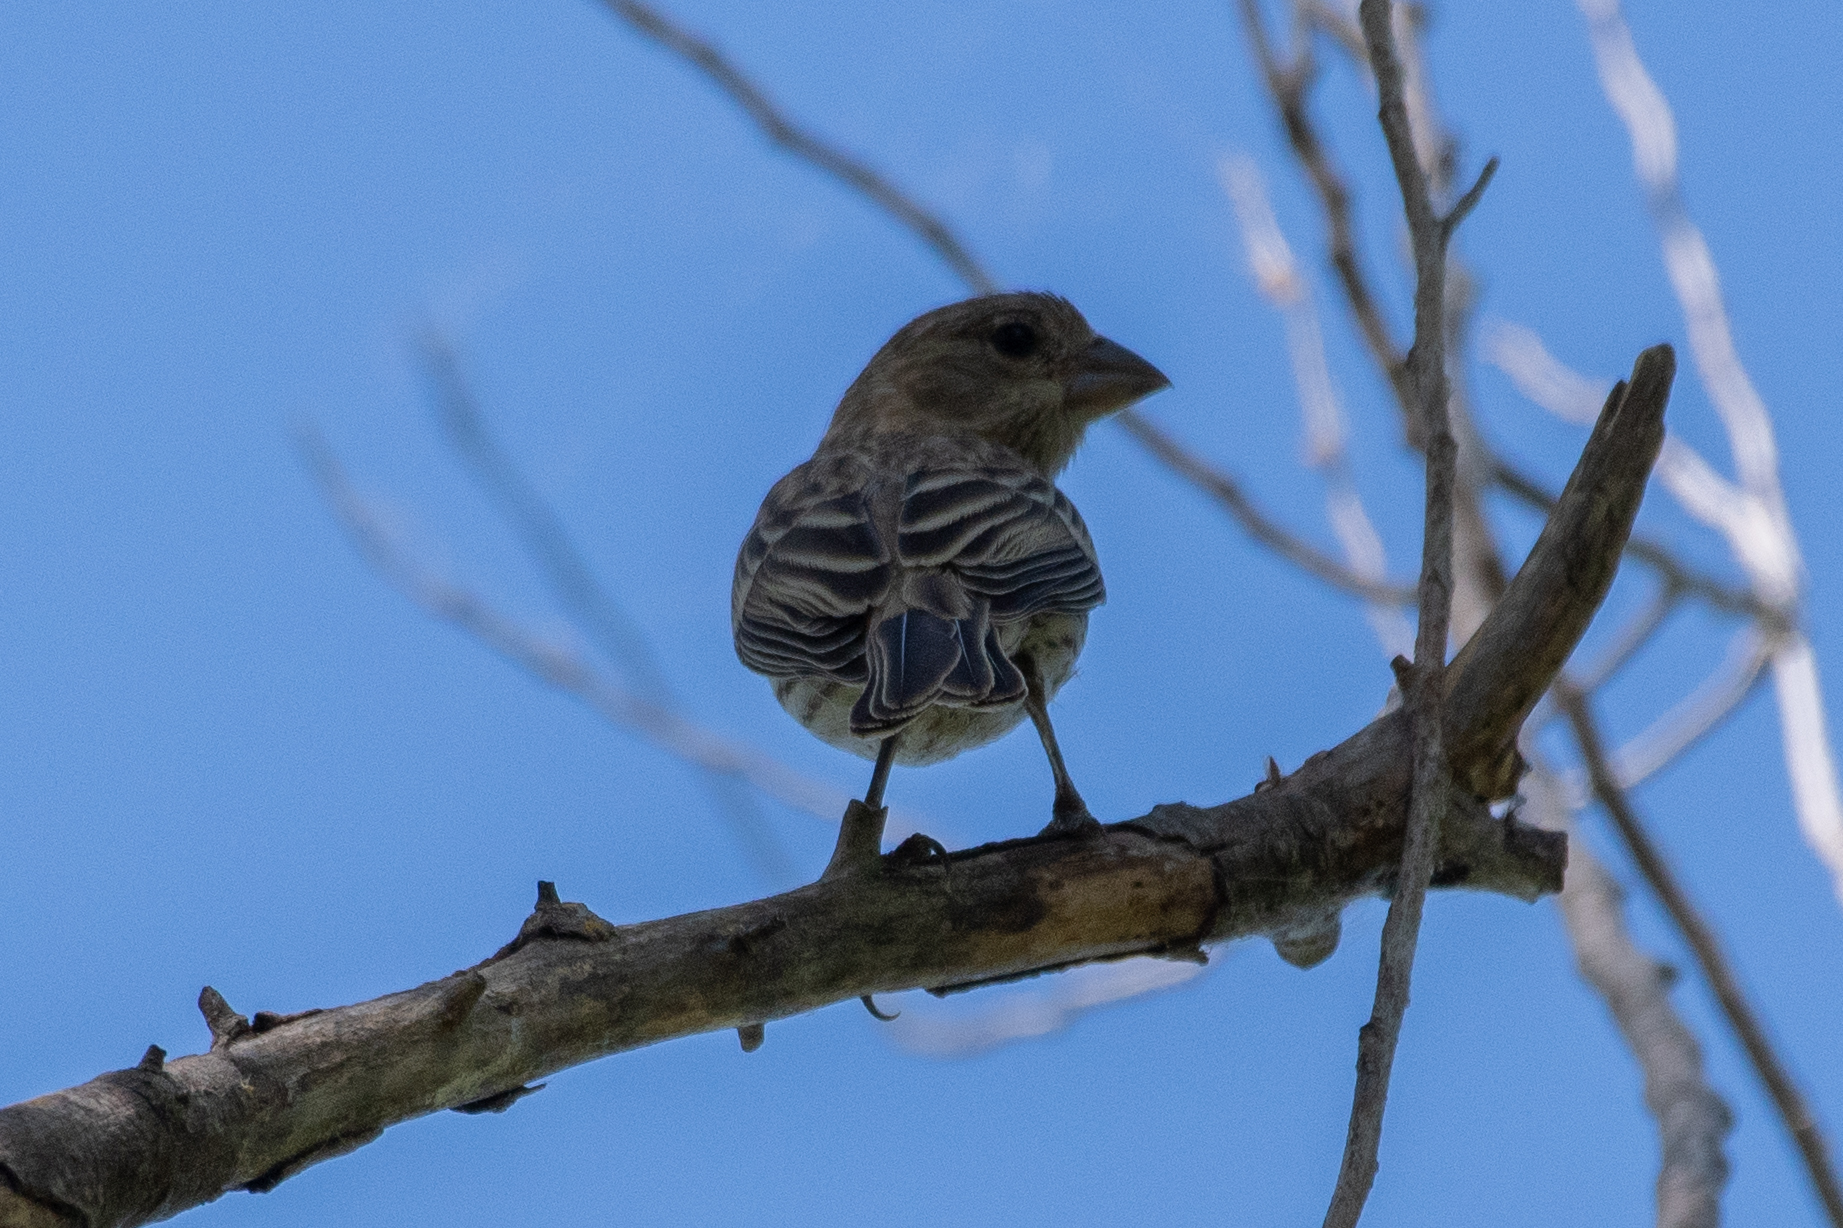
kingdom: Animalia
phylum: Chordata
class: Aves
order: Passeriformes
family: Fringillidae
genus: Haemorhous
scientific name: Haemorhous mexicanus
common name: House finch
